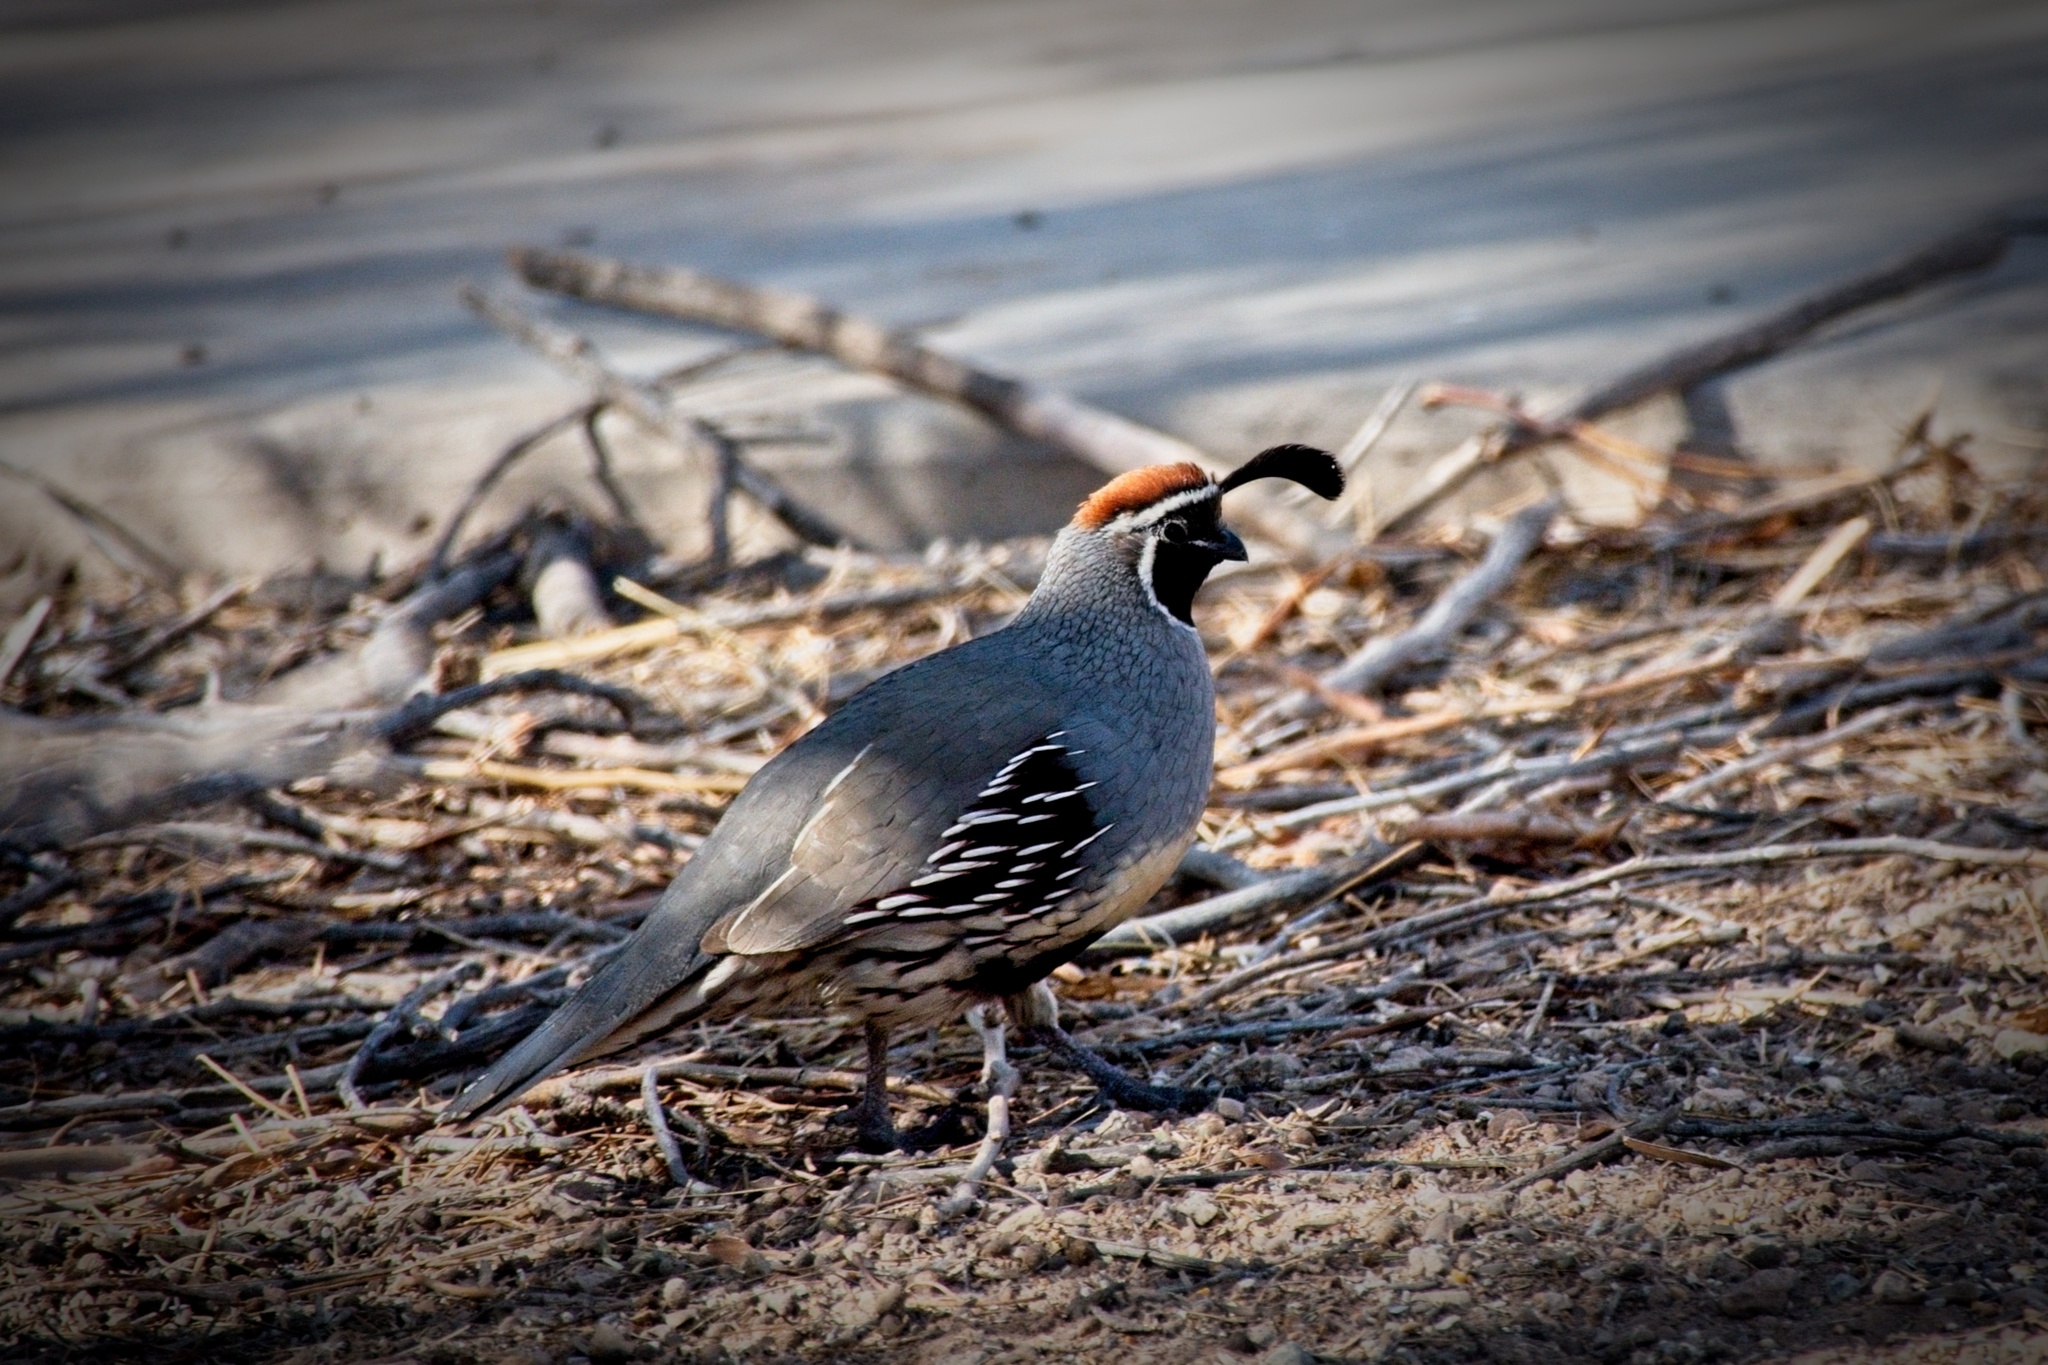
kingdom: Animalia
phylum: Chordata
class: Aves
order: Galliformes
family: Odontophoridae
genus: Callipepla
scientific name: Callipepla gambelii
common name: Gambel's quail
